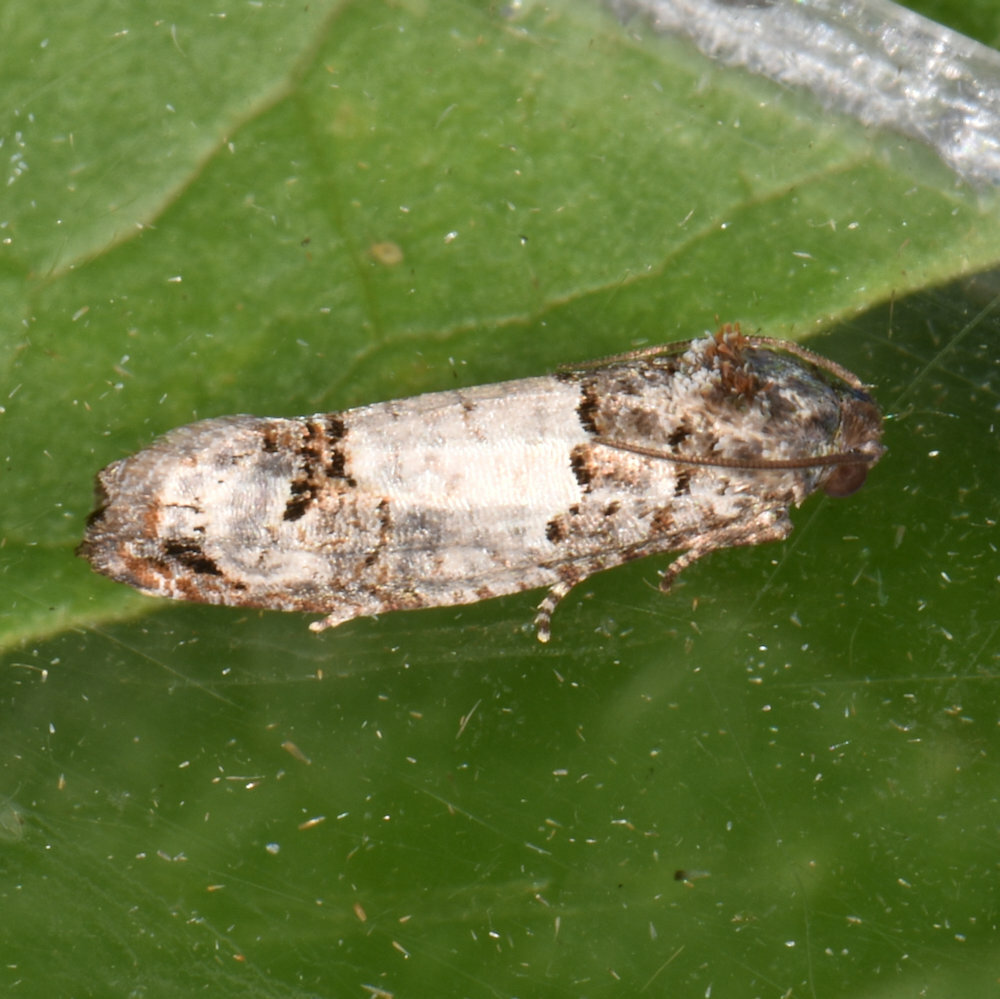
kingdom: Animalia
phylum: Arthropoda
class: Insecta
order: Lepidoptera
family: Tortricidae
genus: Epiblema
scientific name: Epiblema carolinana
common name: Gray-blotched epiblema moth
